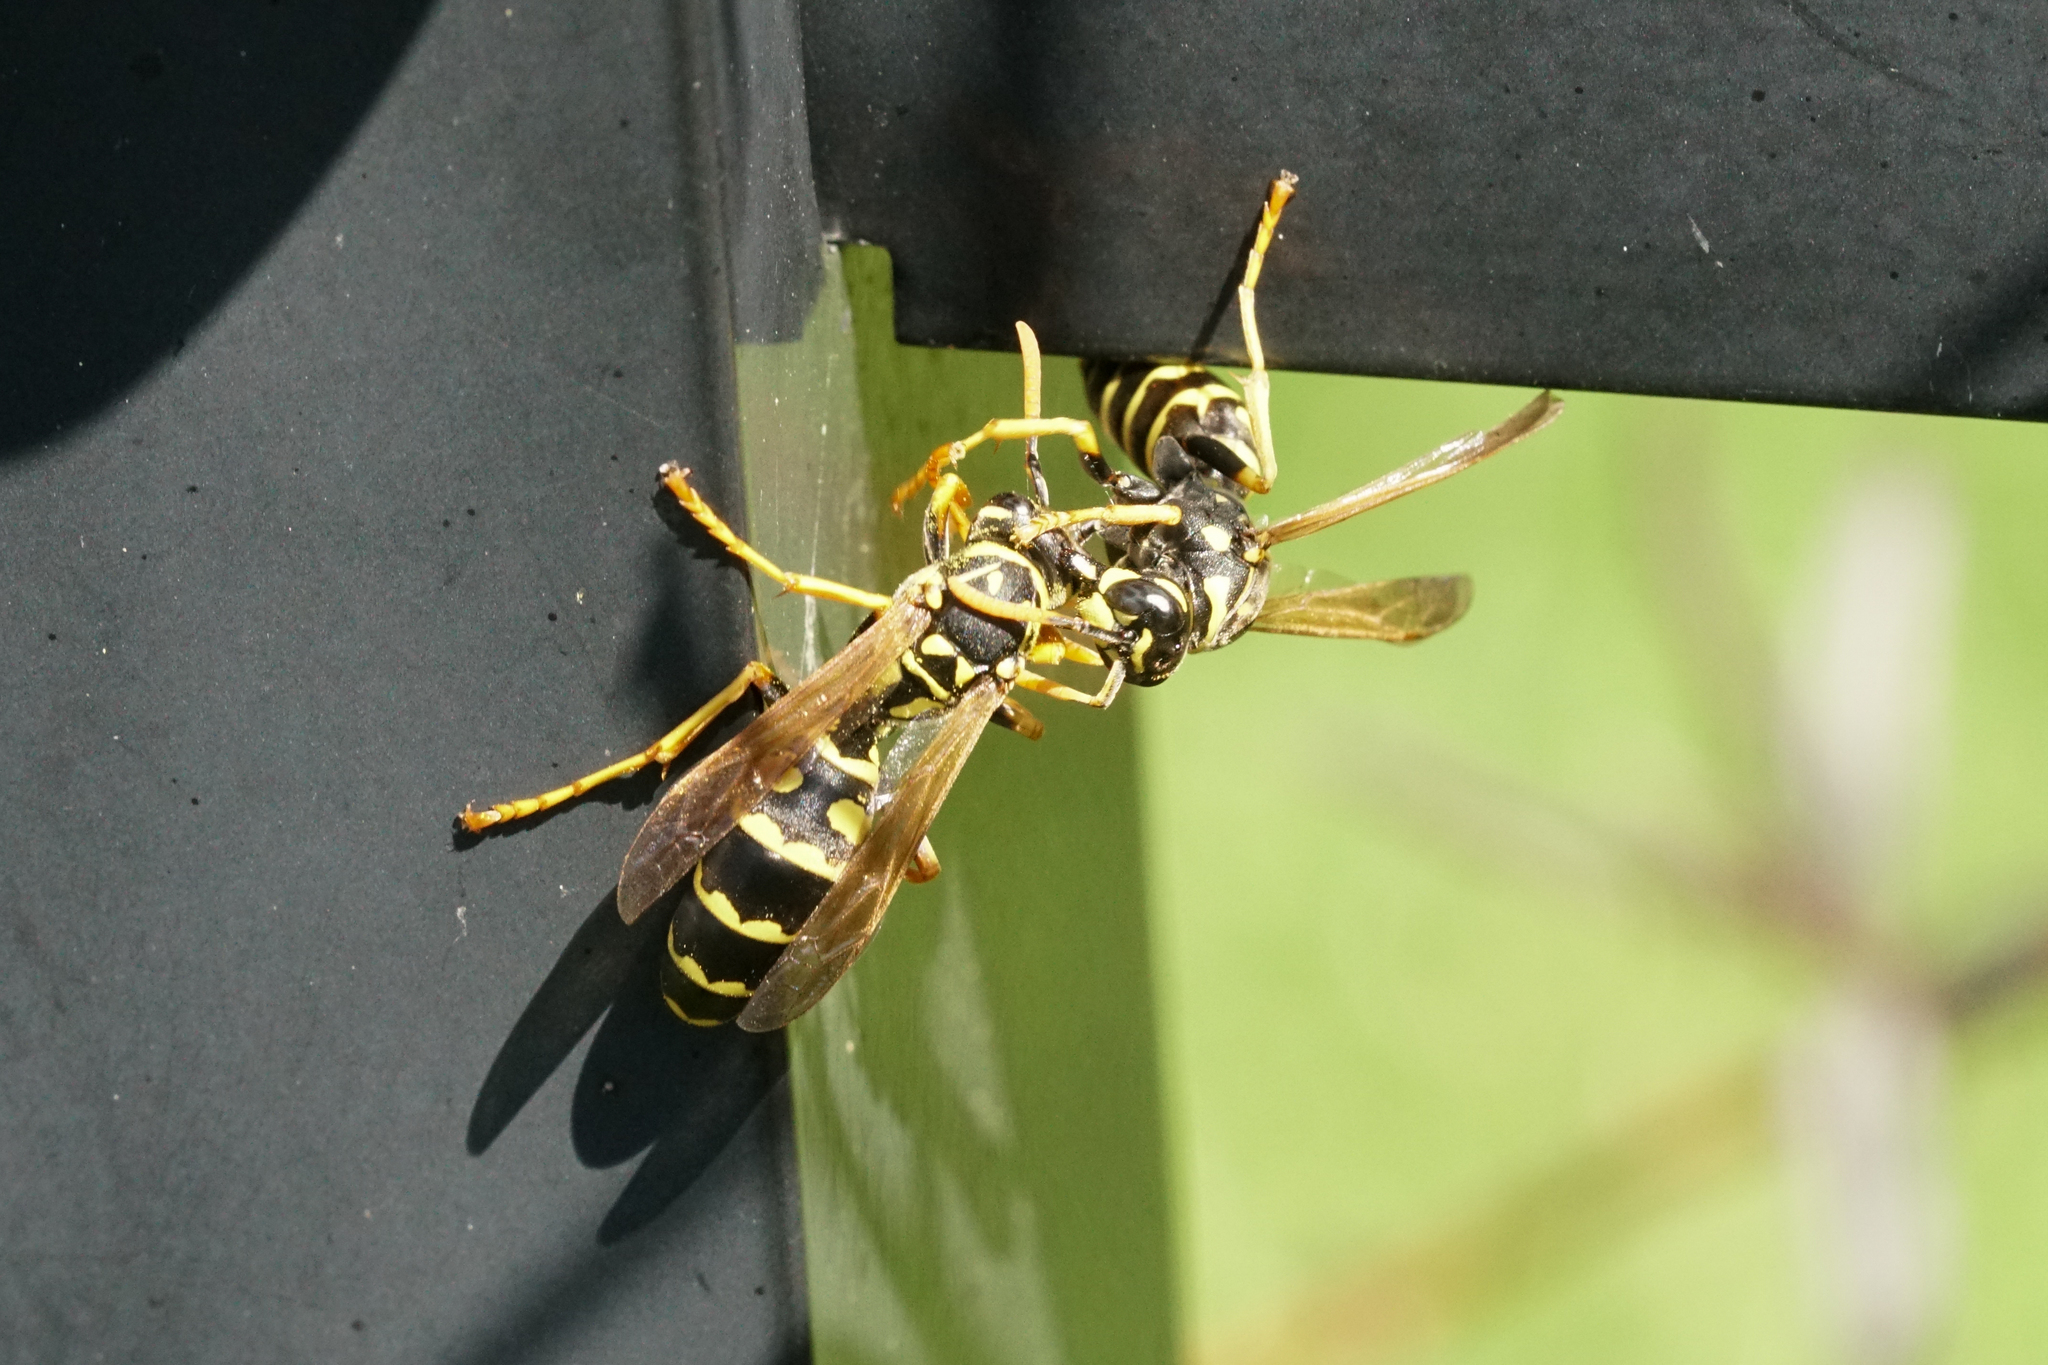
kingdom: Animalia
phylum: Arthropoda
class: Insecta
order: Hymenoptera
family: Eumenidae
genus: Polistes
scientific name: Polistes dominula
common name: Paper wasp
